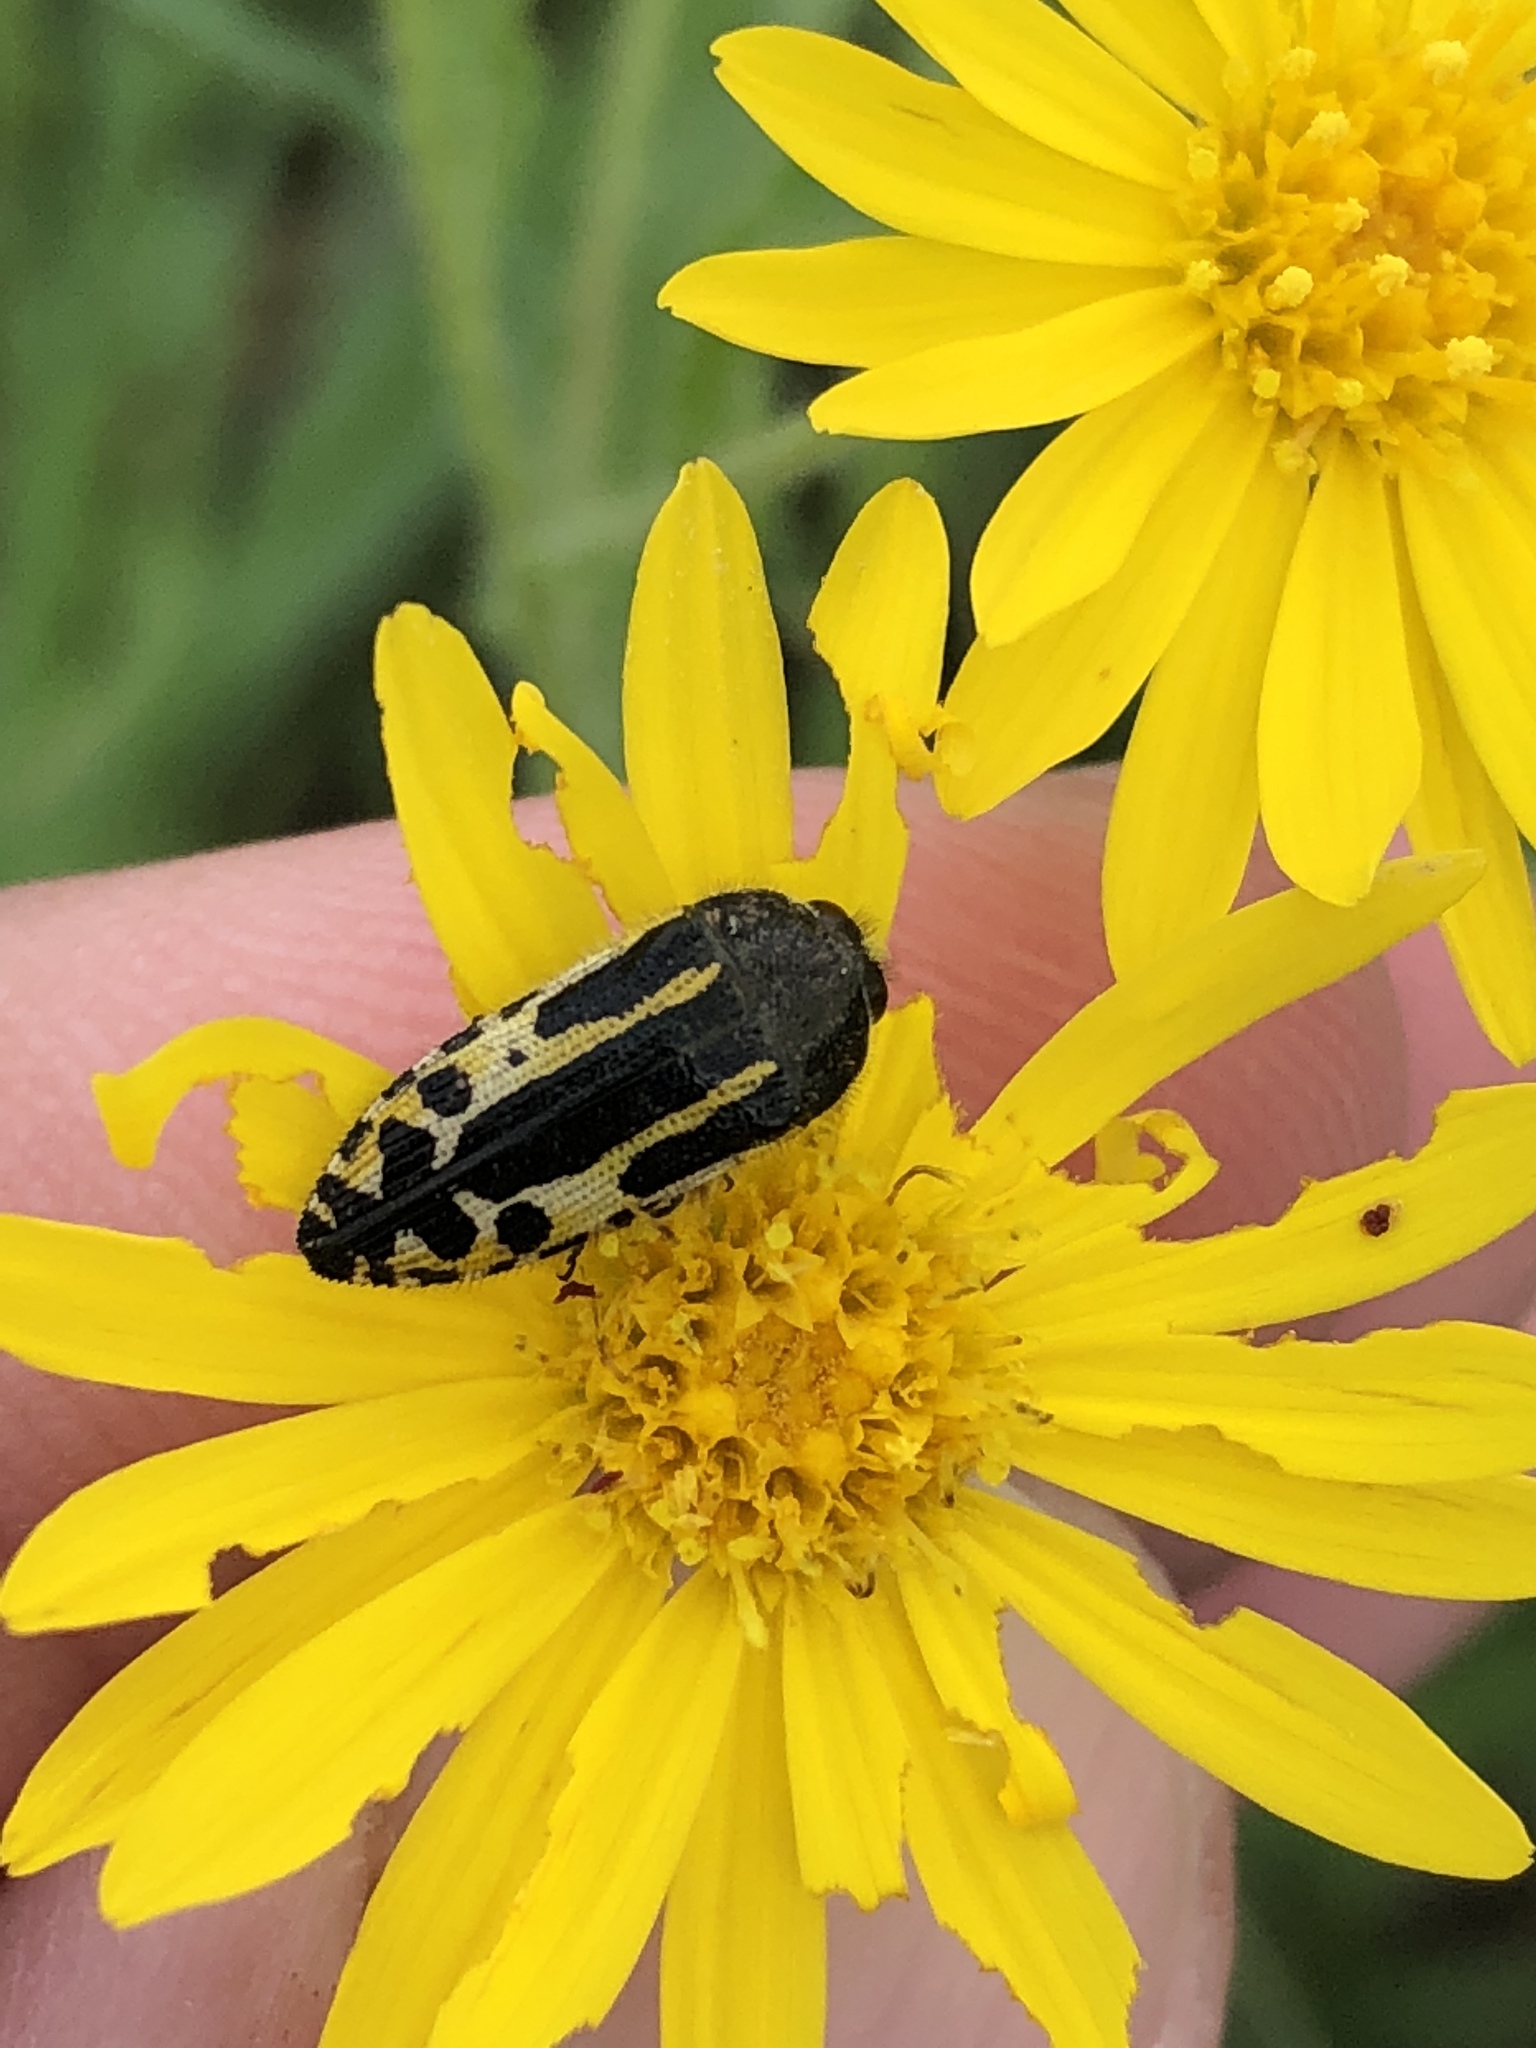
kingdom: Animalia
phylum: Arthropoda
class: Insecta
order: Coleoptera
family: Buprestidae
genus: Acmaeodera
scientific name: Acmaeodera scalaris
